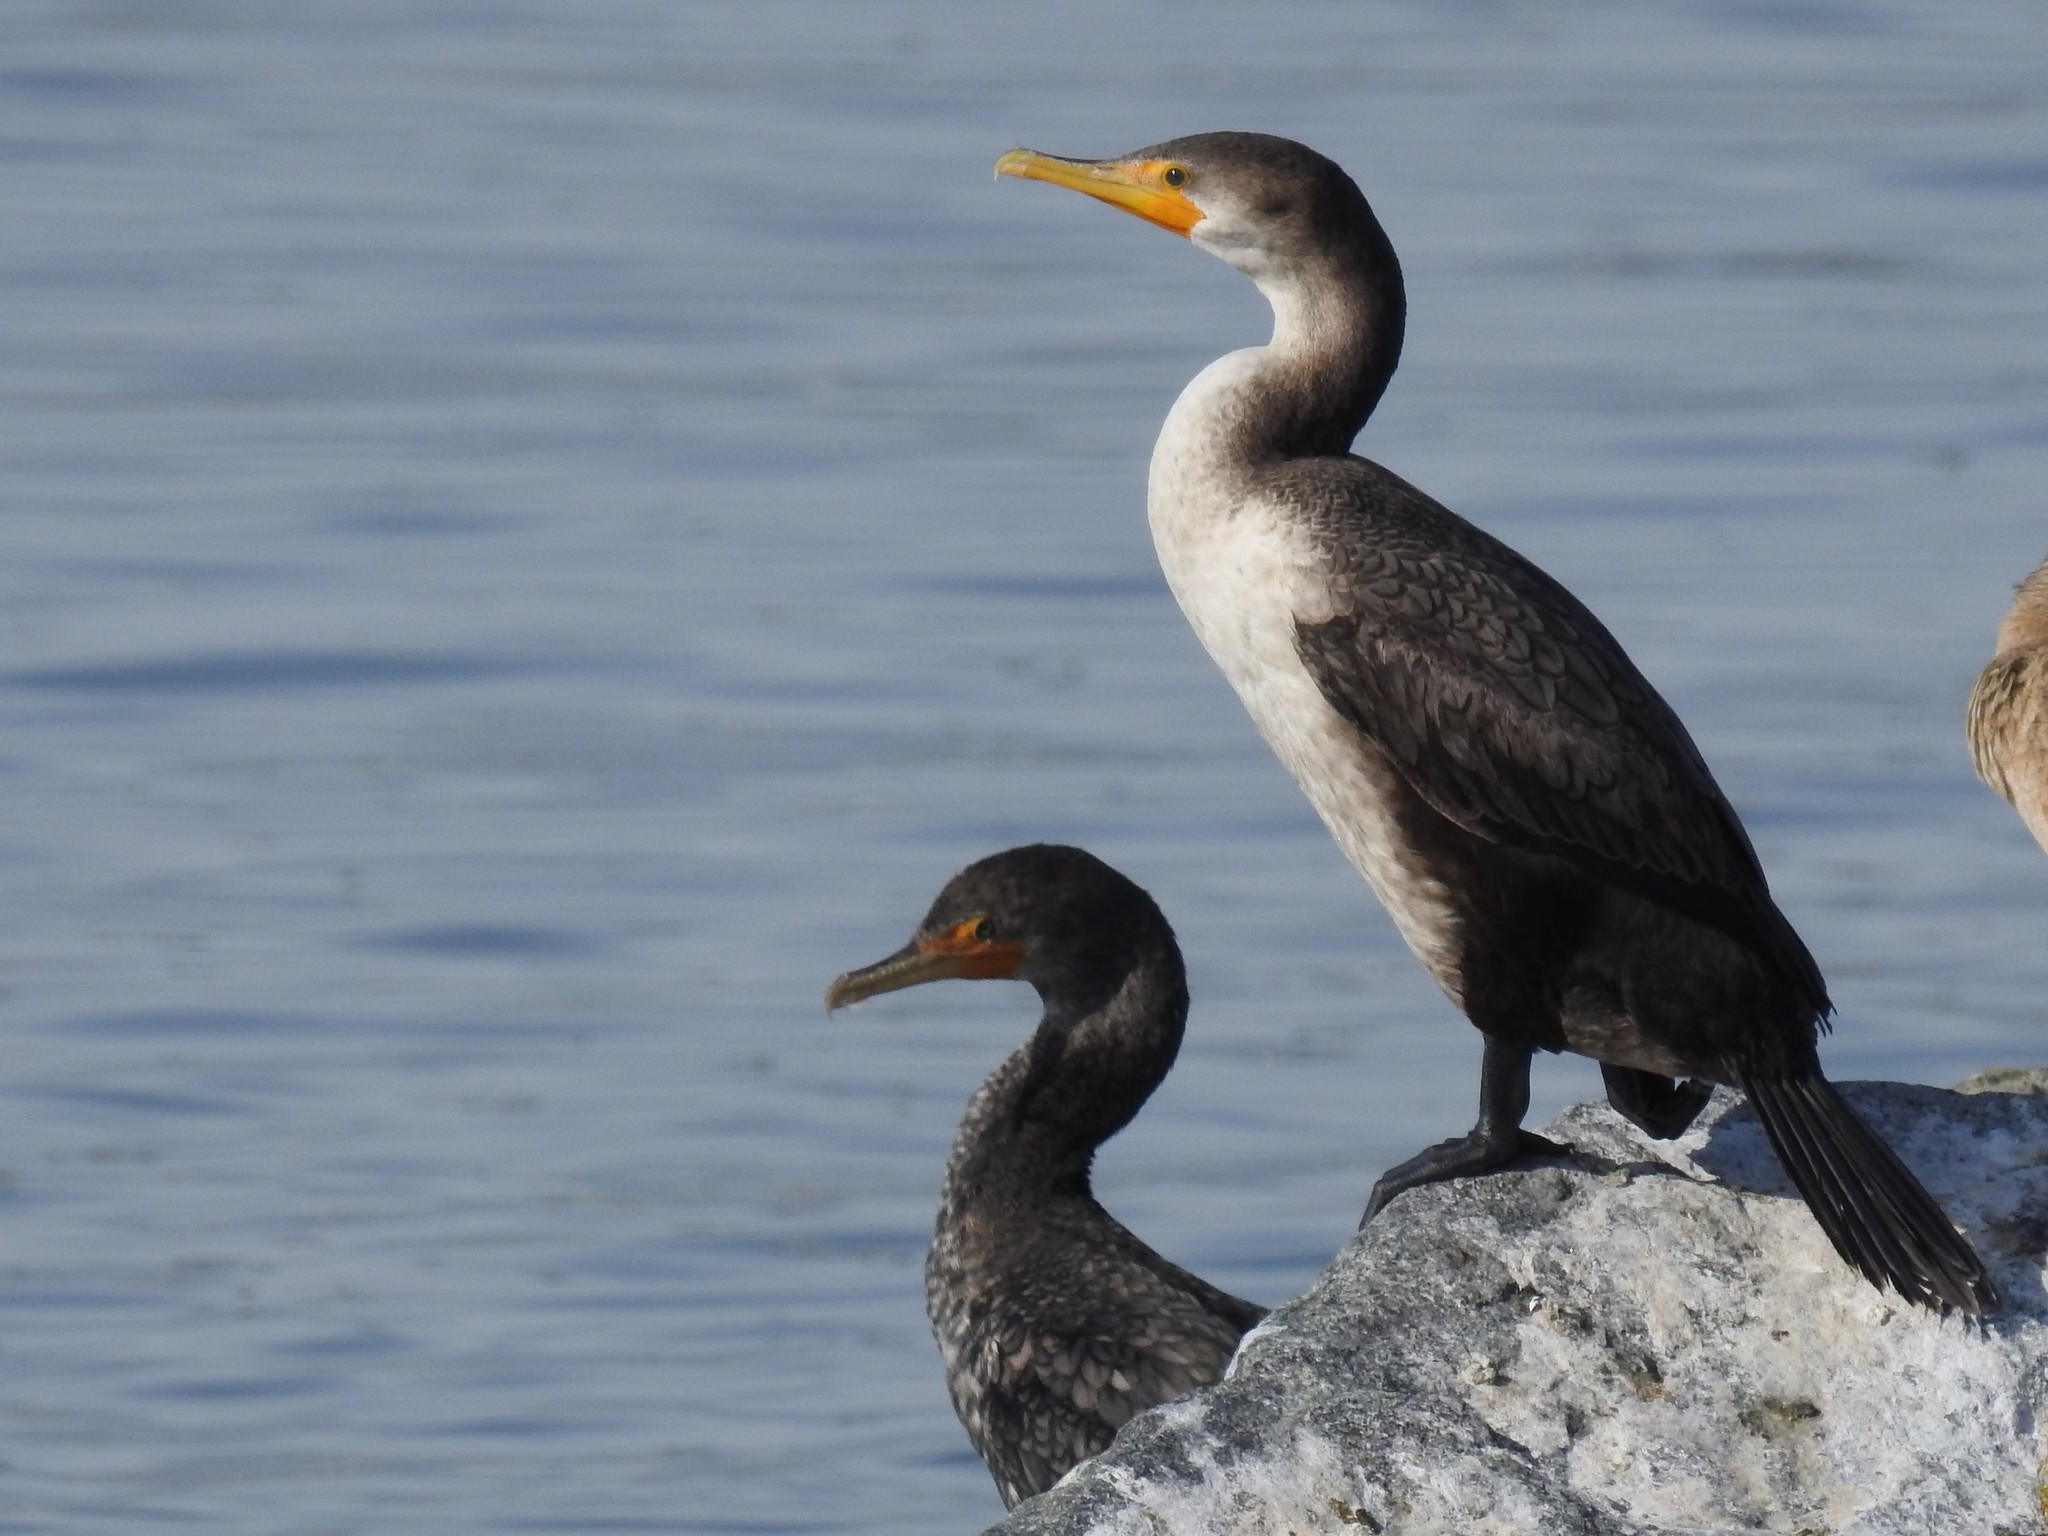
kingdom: Animalia
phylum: Chordata
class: Aves
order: Suliformes
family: Phalacrocoracidae
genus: Phalacrocorax
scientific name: Phalacrocorax auritus
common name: Double-crested cormorant
